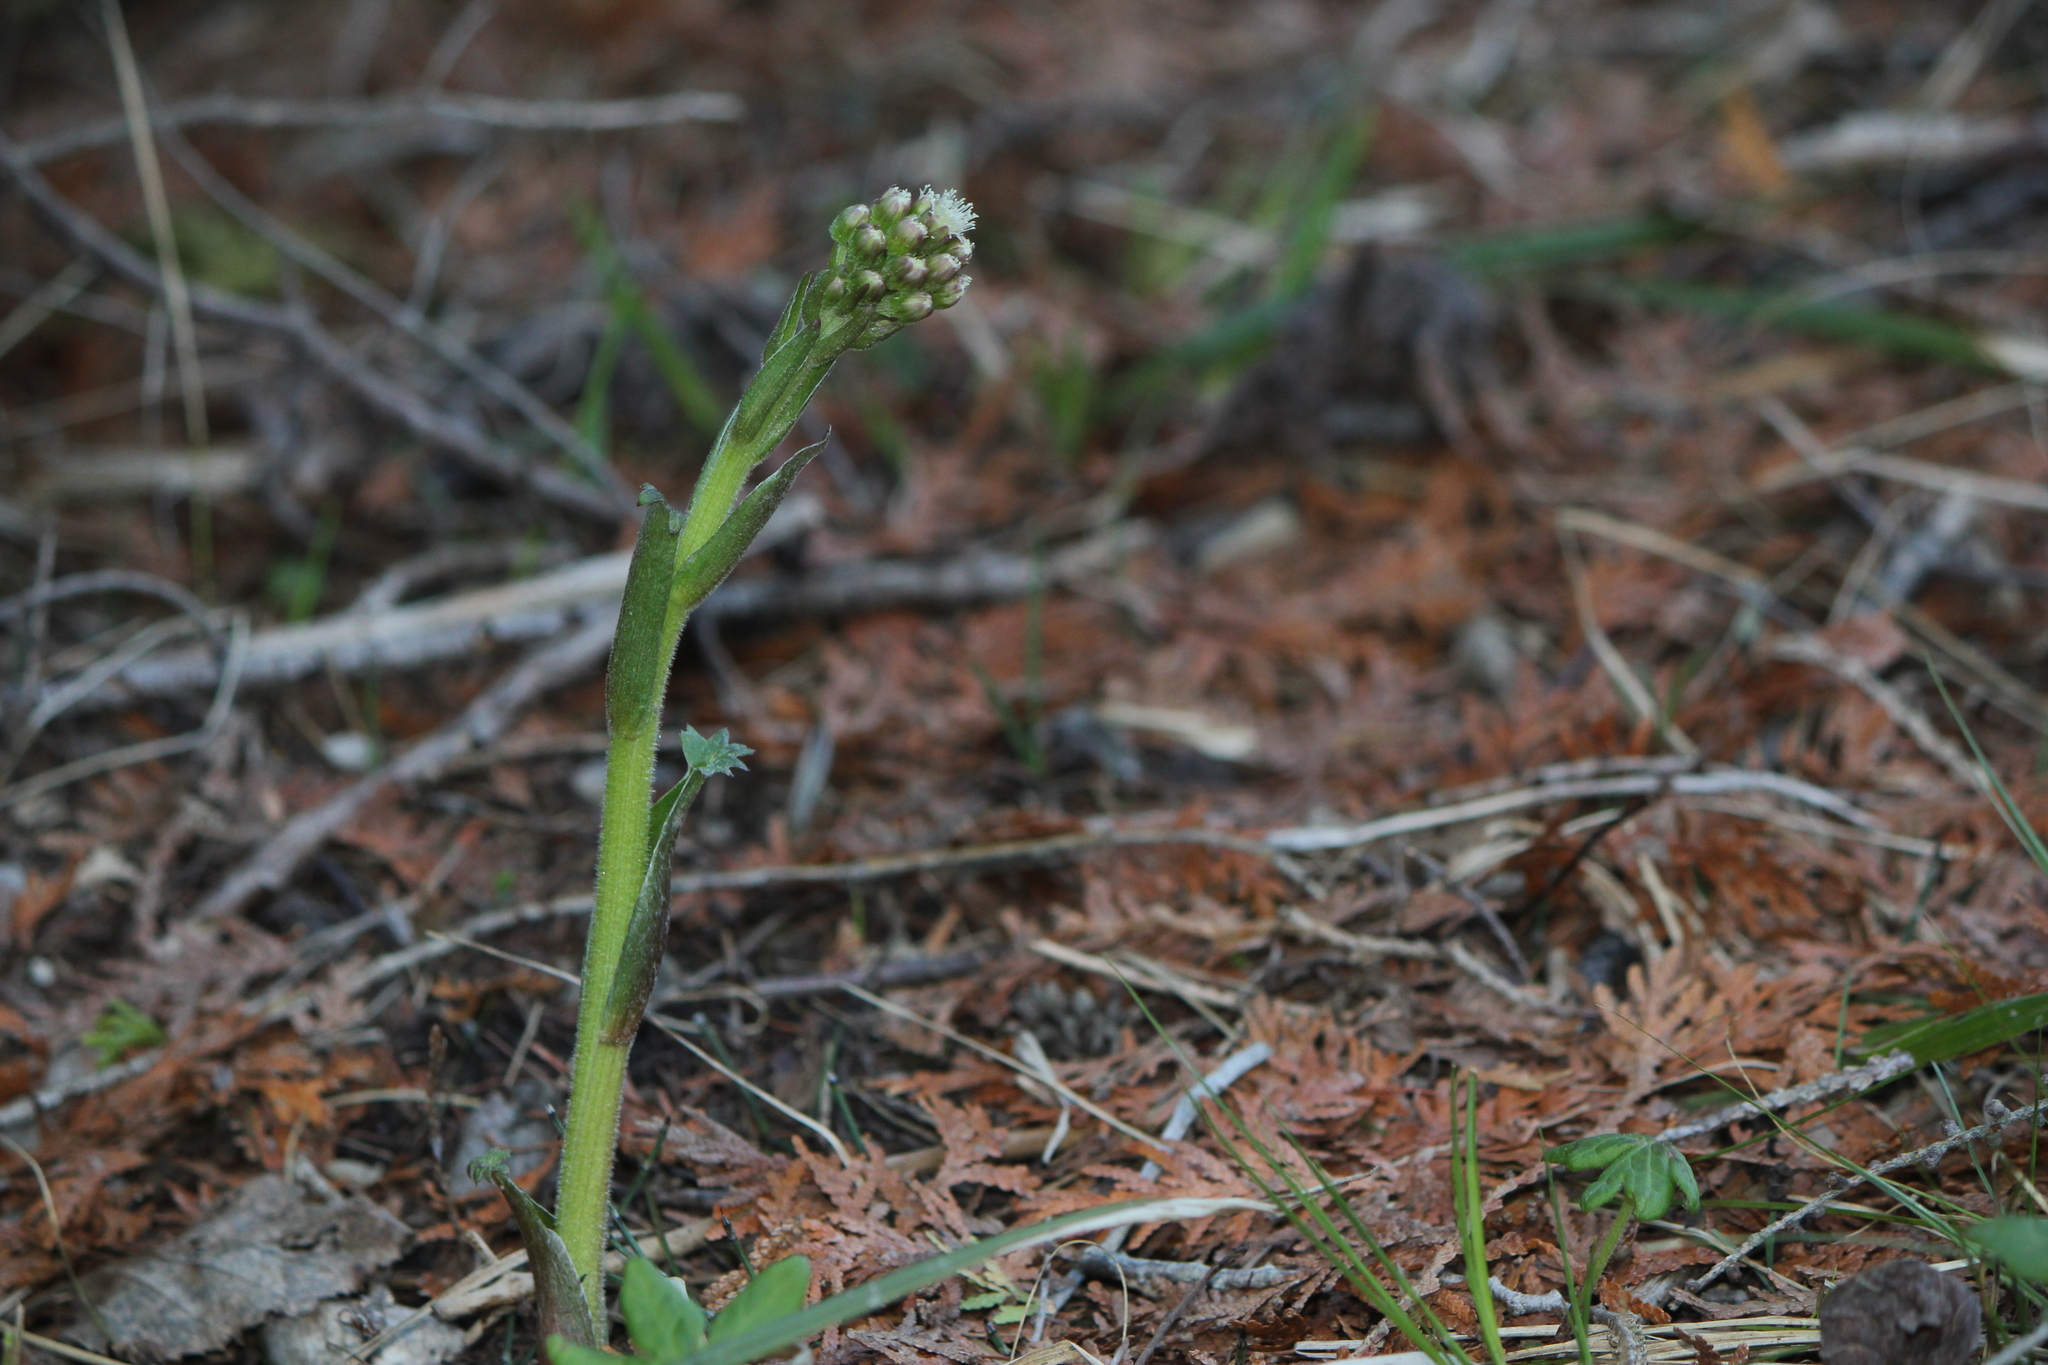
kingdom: Plantae
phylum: Tracheophyta
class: Magnoliopsida
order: Asterales
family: Asteraceae
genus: Petasites
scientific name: Petasites frigidus
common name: Arctic butterbur
